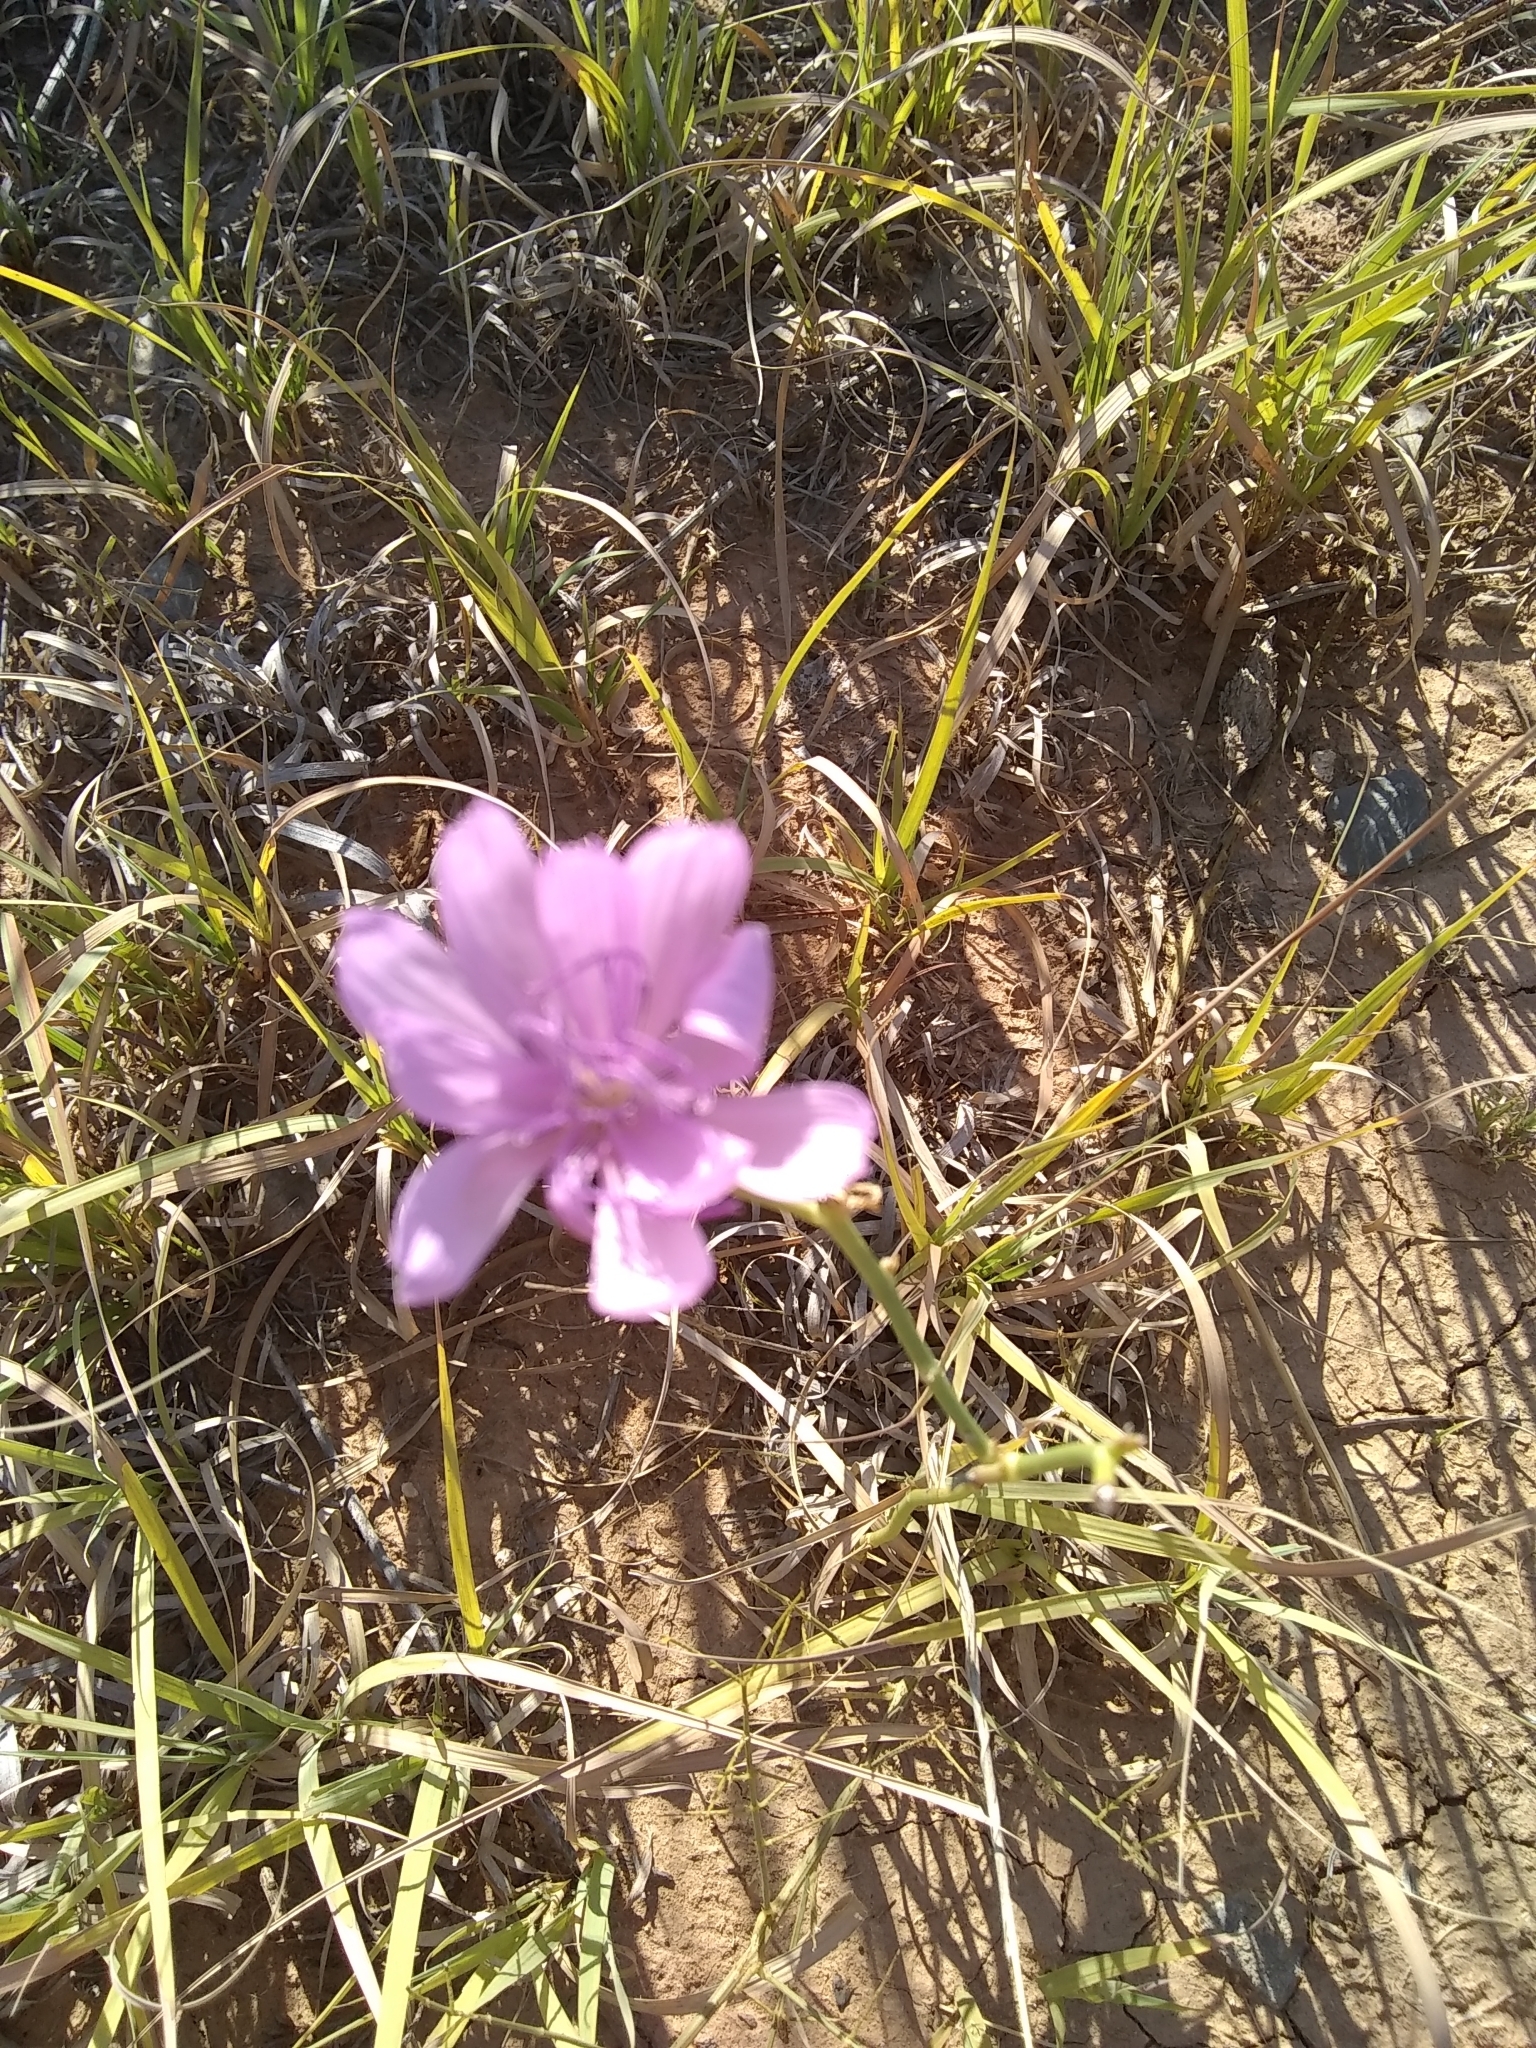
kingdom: Plantae
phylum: Tracheophyta
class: Magnoliopsida
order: Asterales
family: Asteraceae
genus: Lygodesmia
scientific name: Lygodesmia texana
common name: Texas skeleton-plant
